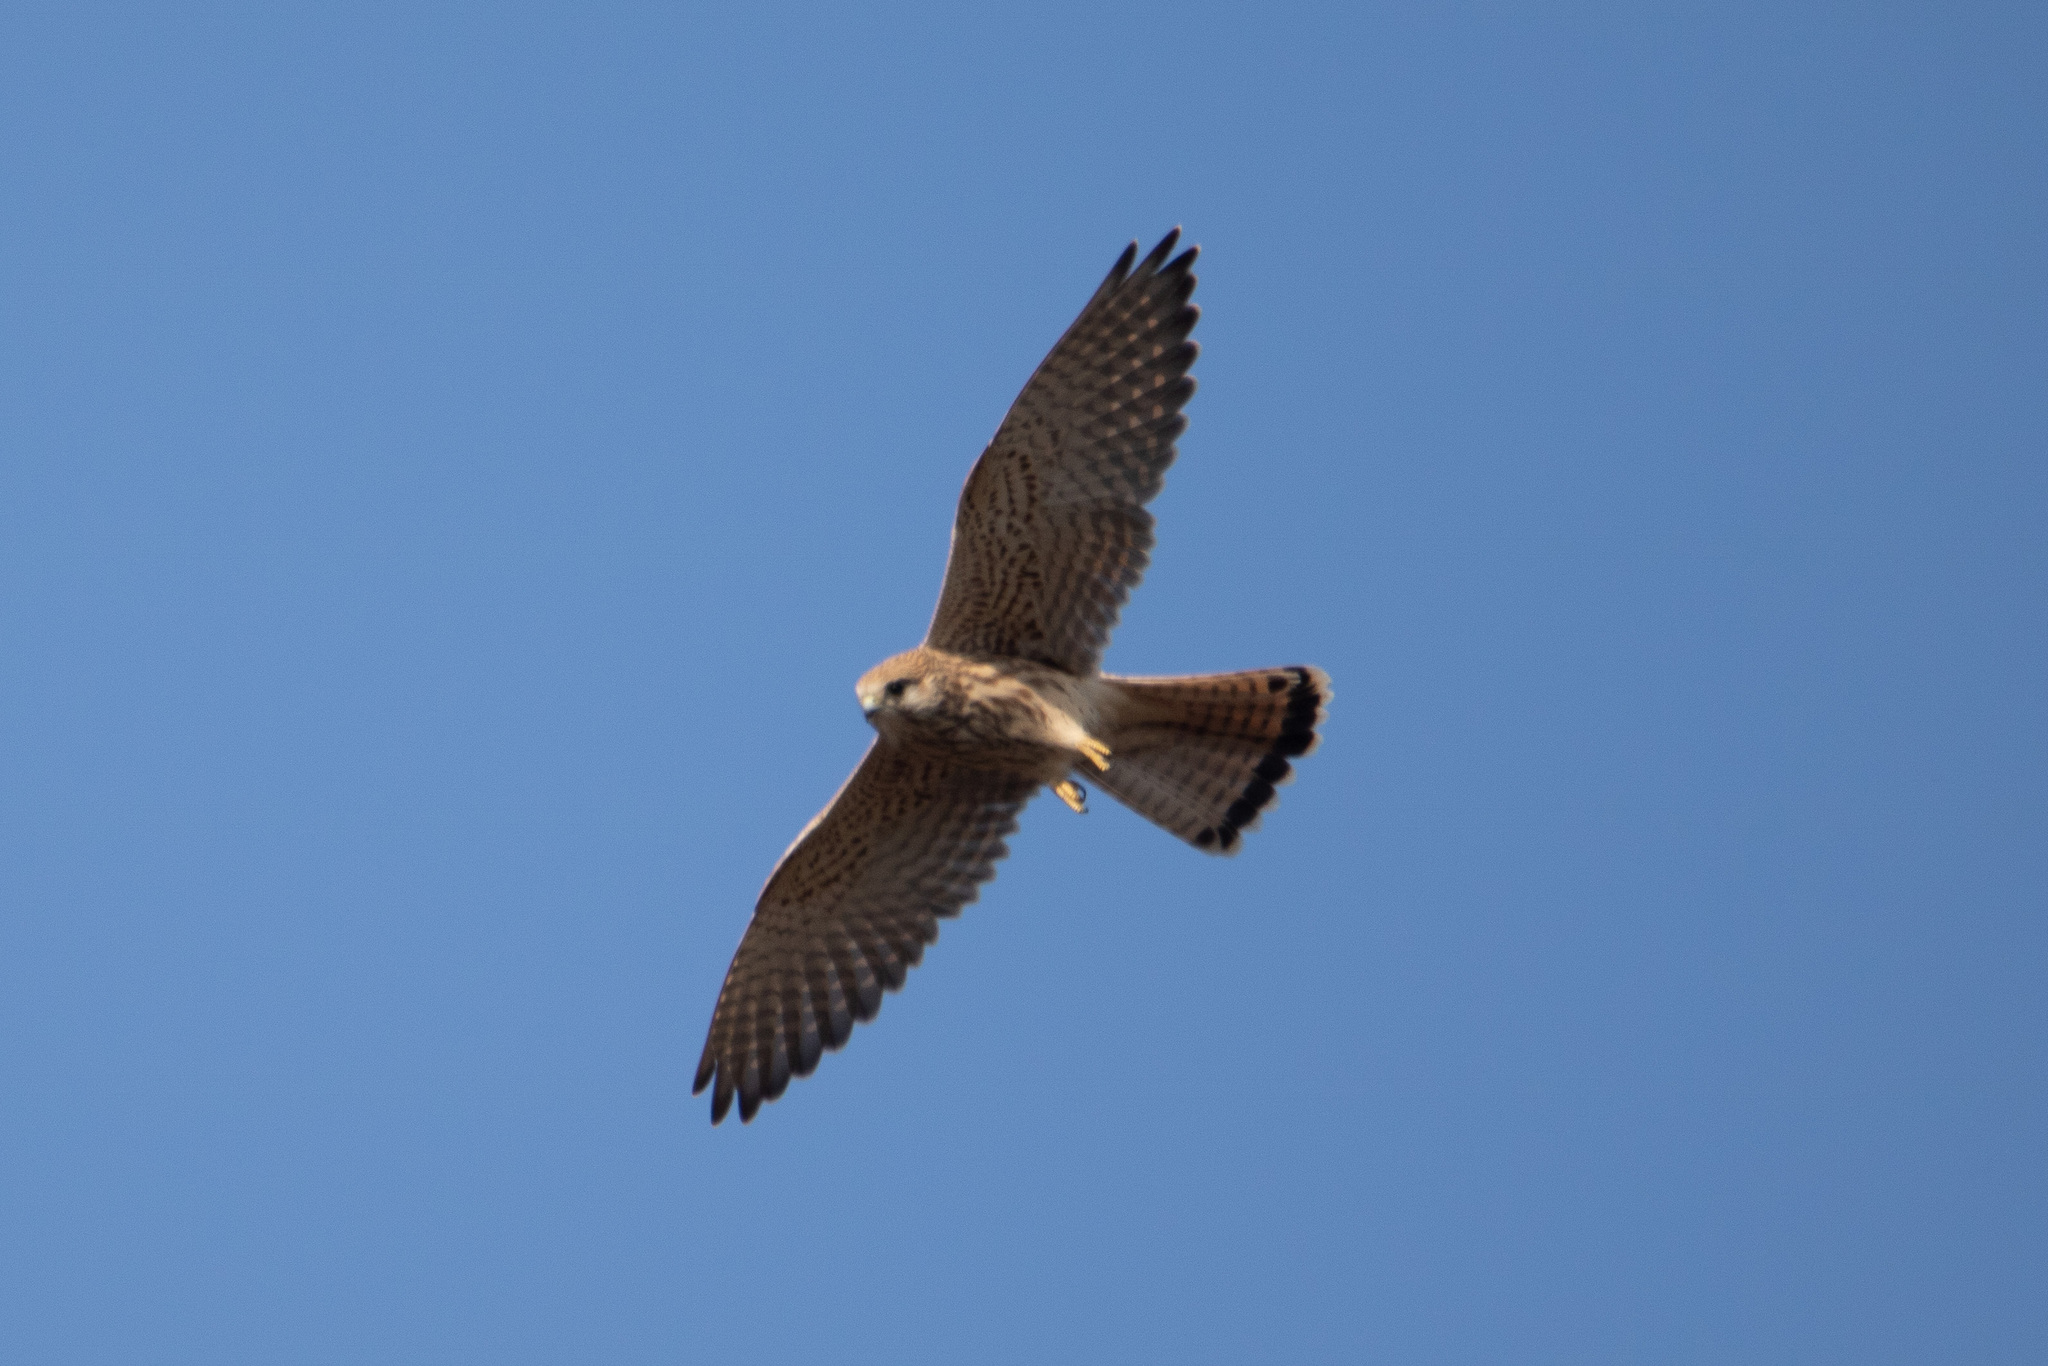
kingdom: Animalia
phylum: Chordata
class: Aves
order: Falconiformes
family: Falconidae
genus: Falco
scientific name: Falco tinnunculus
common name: Common kestrel
